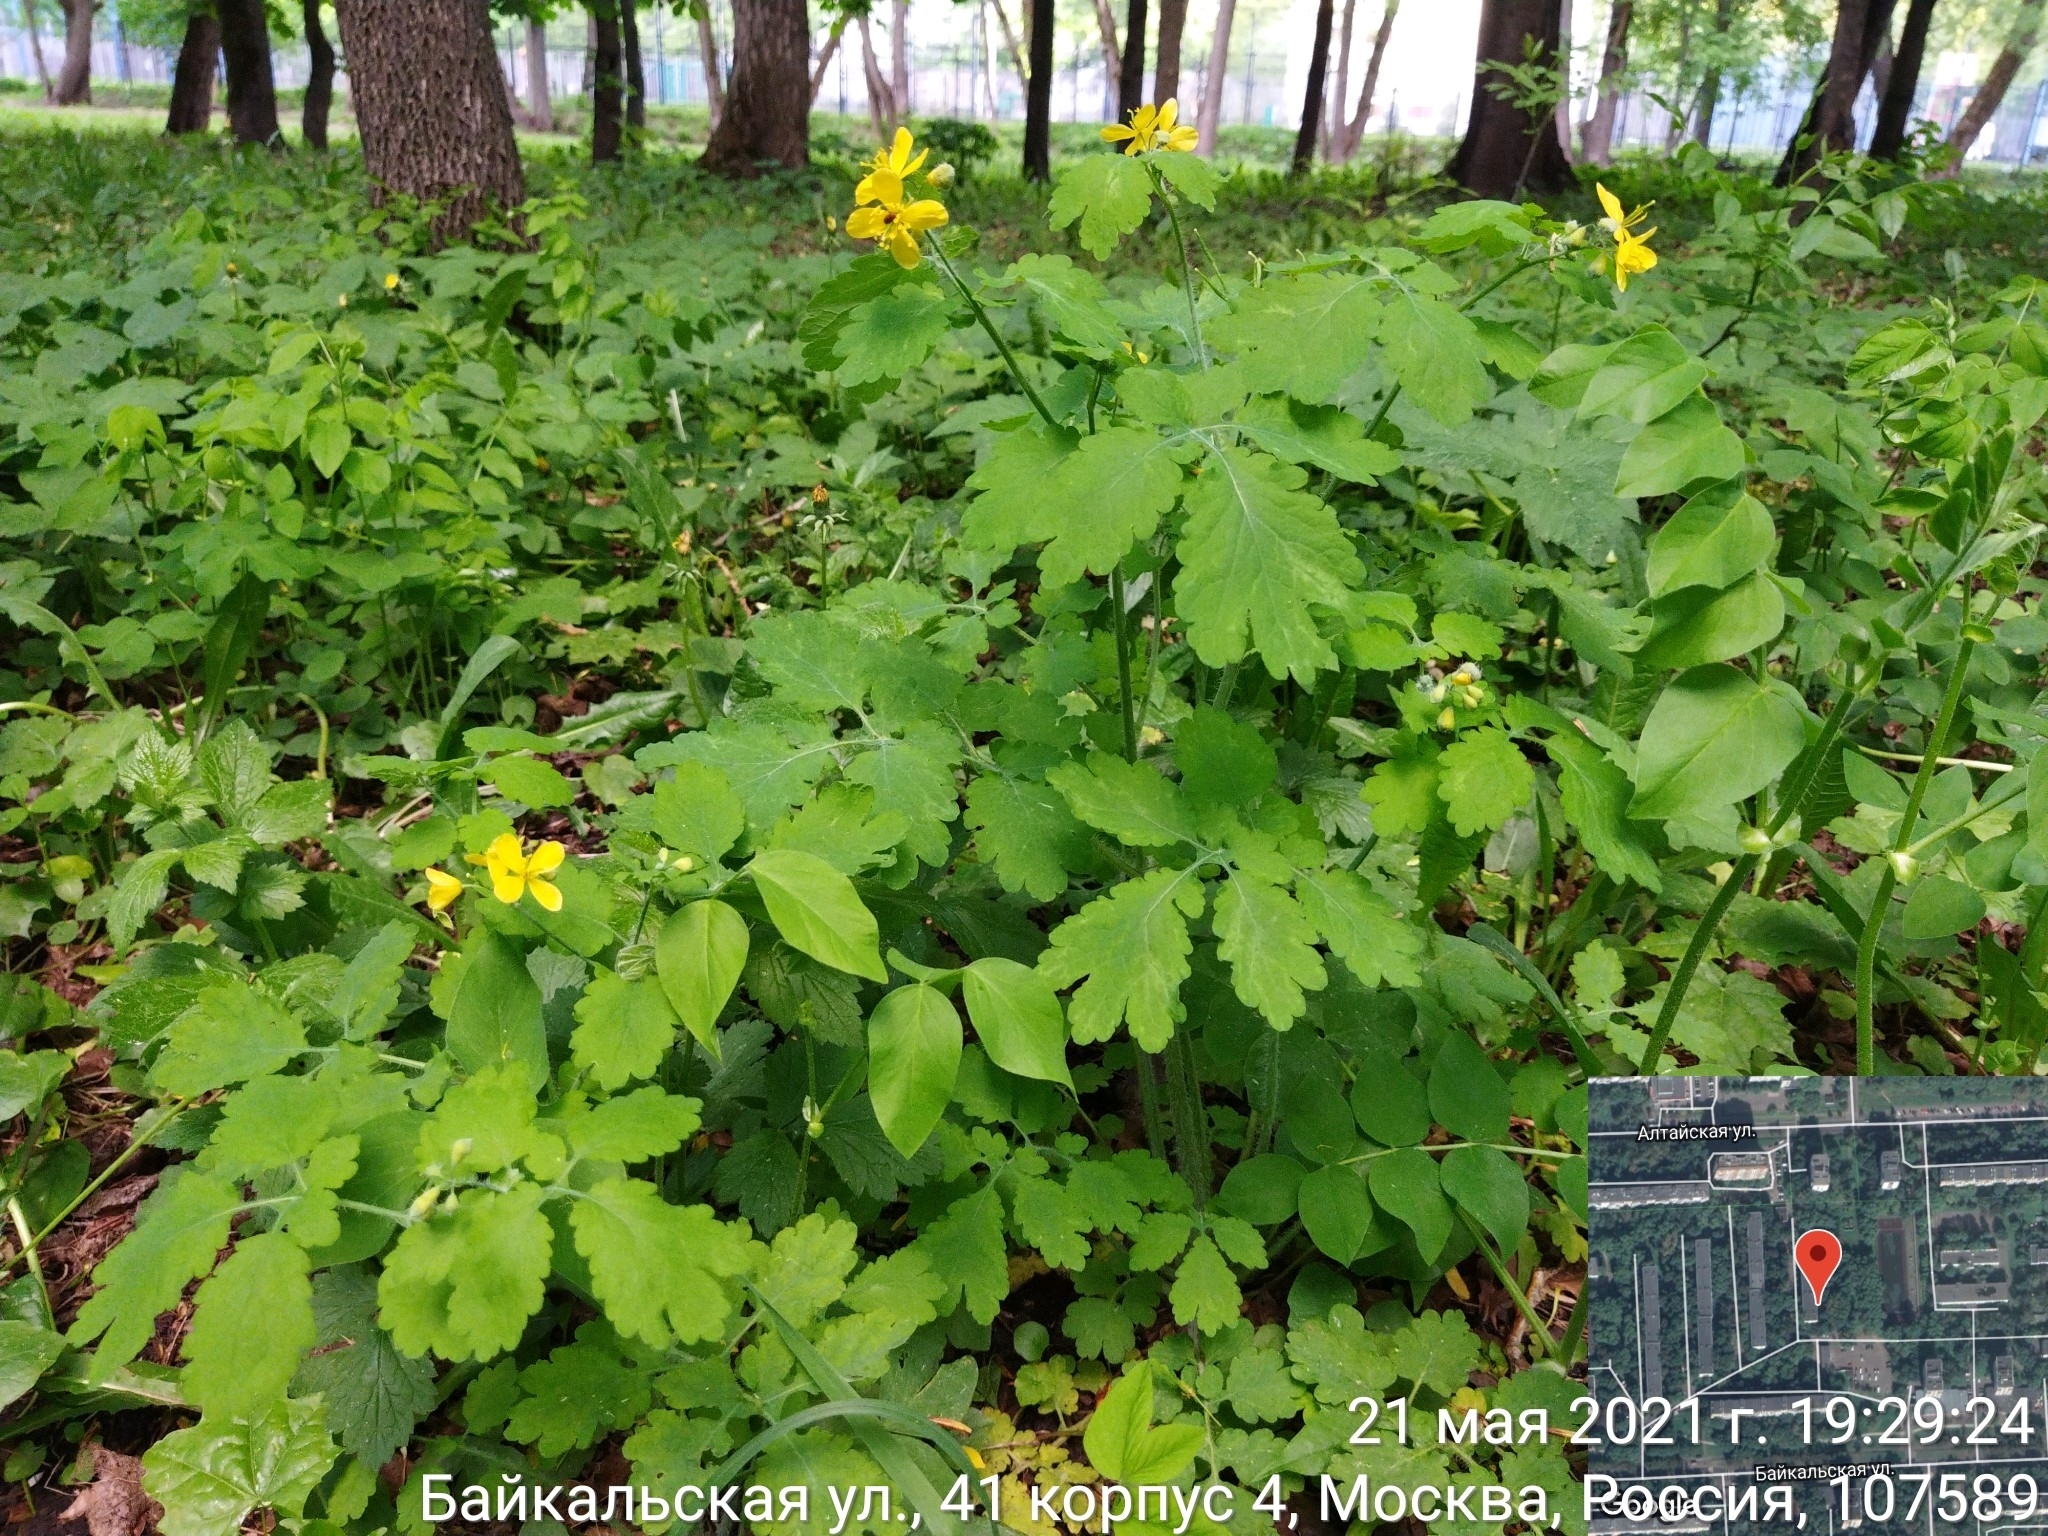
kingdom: Plantae
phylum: Tracheophyta
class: Magnoliopsida
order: Ranunculales
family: Papaveraceae
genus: Chelidonium
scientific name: Chelidonium majus
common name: Greater celandine
